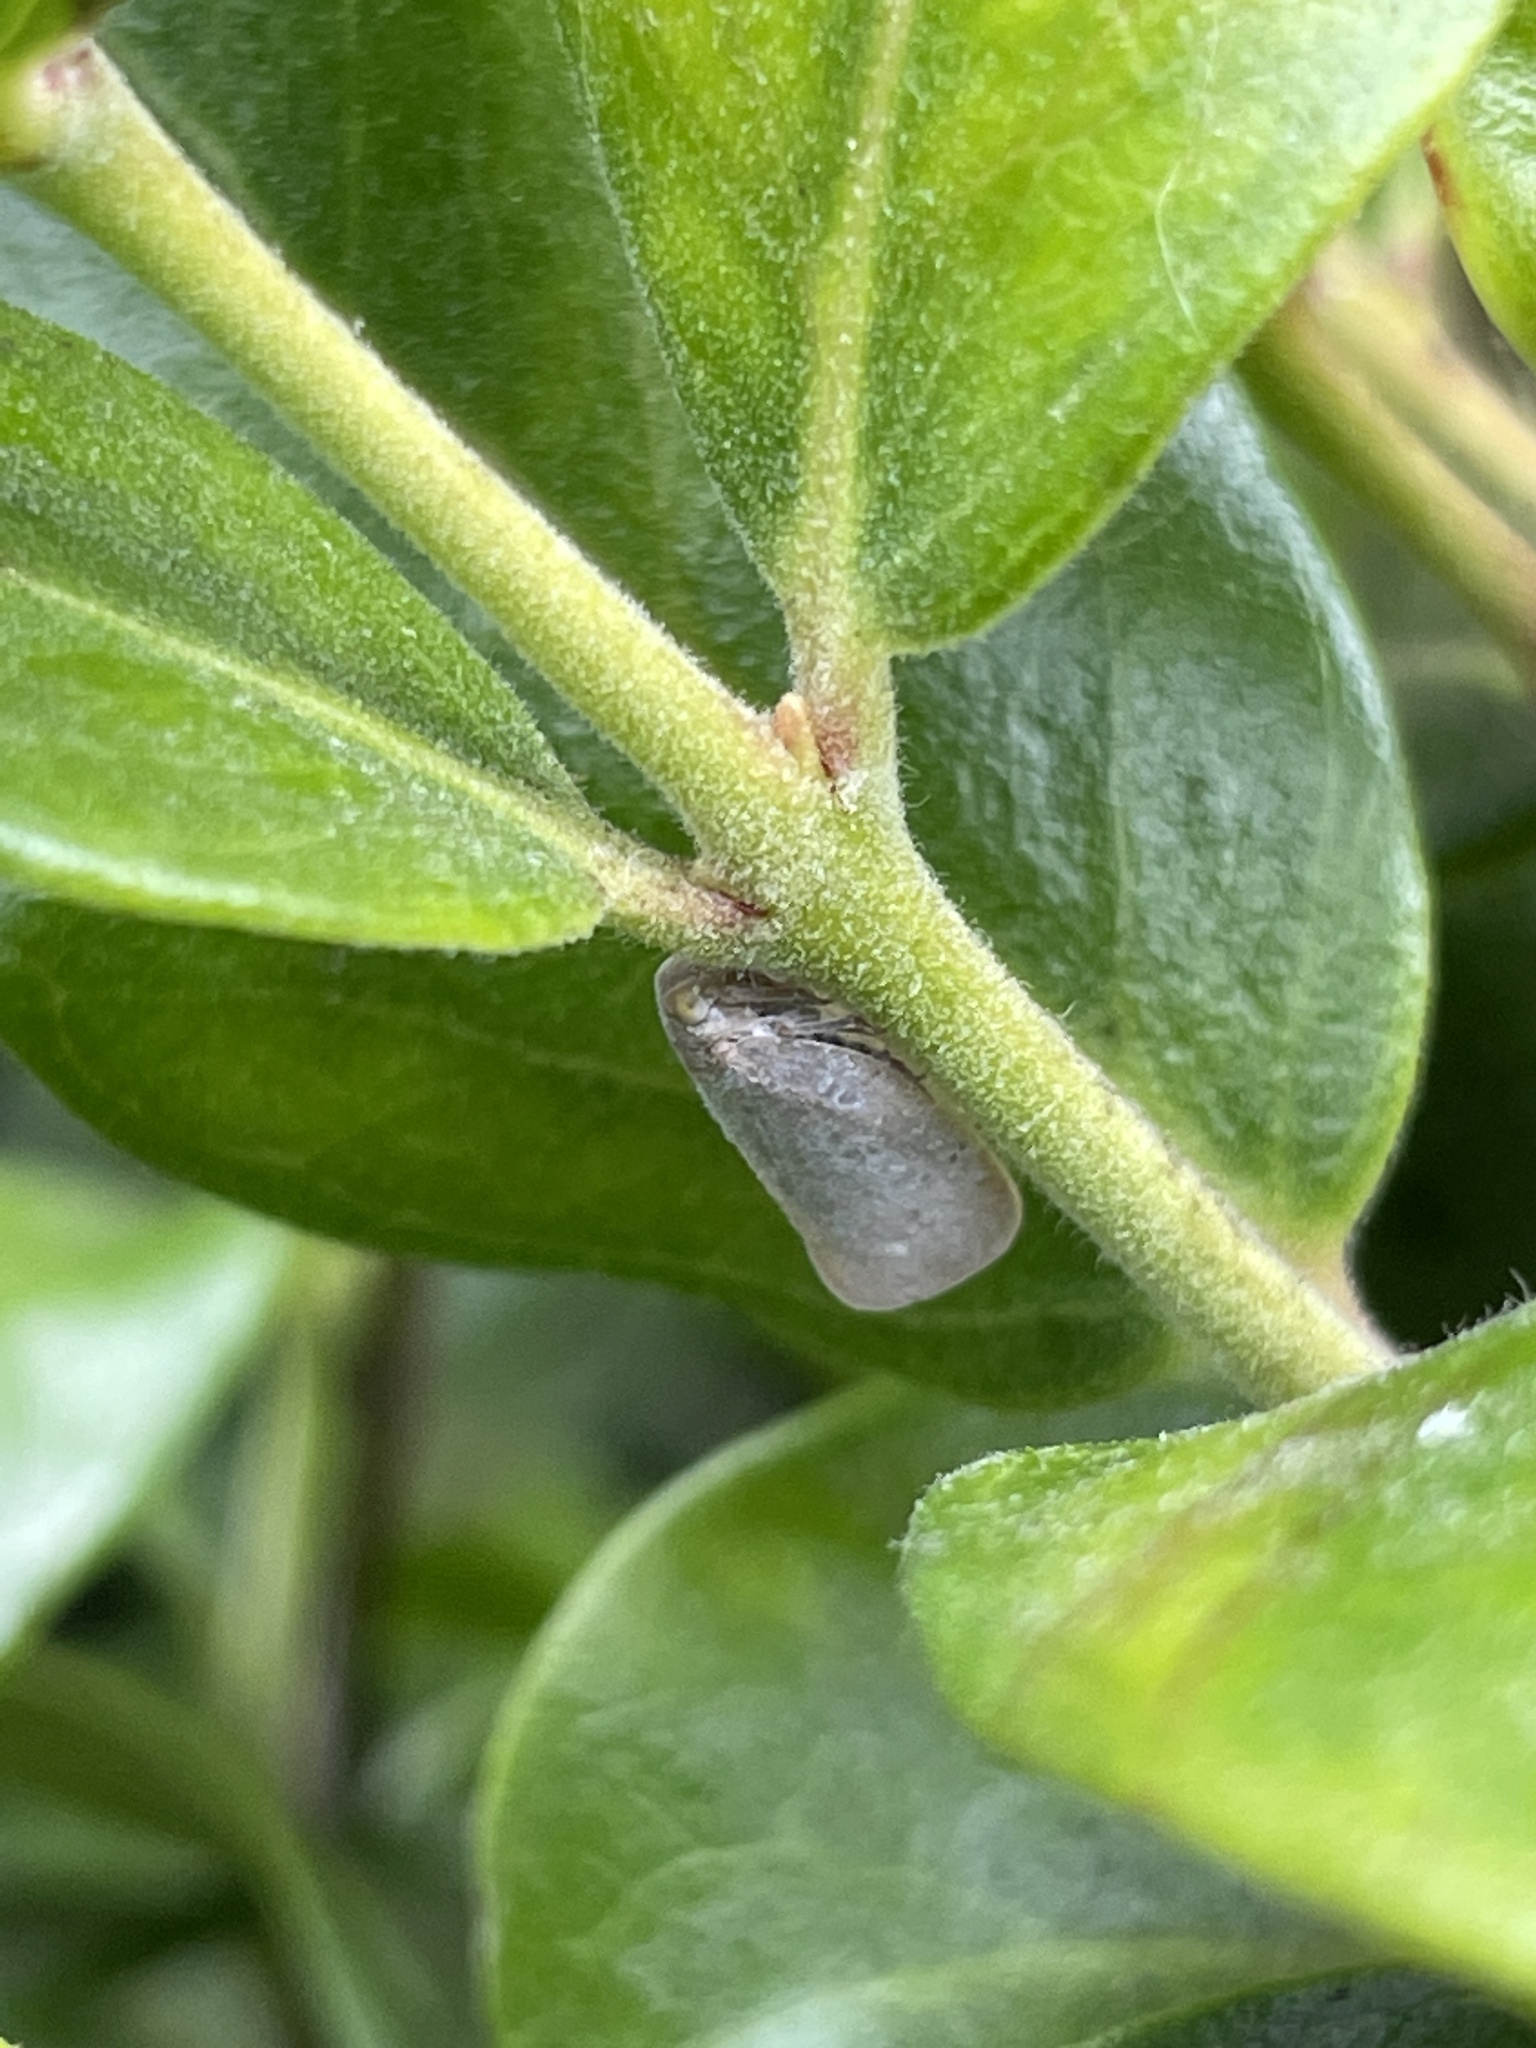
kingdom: Animalia
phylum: Arthropoda
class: Insecta
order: Hemiptera
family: Flatidae
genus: Anzora
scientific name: Anzora unicolor
